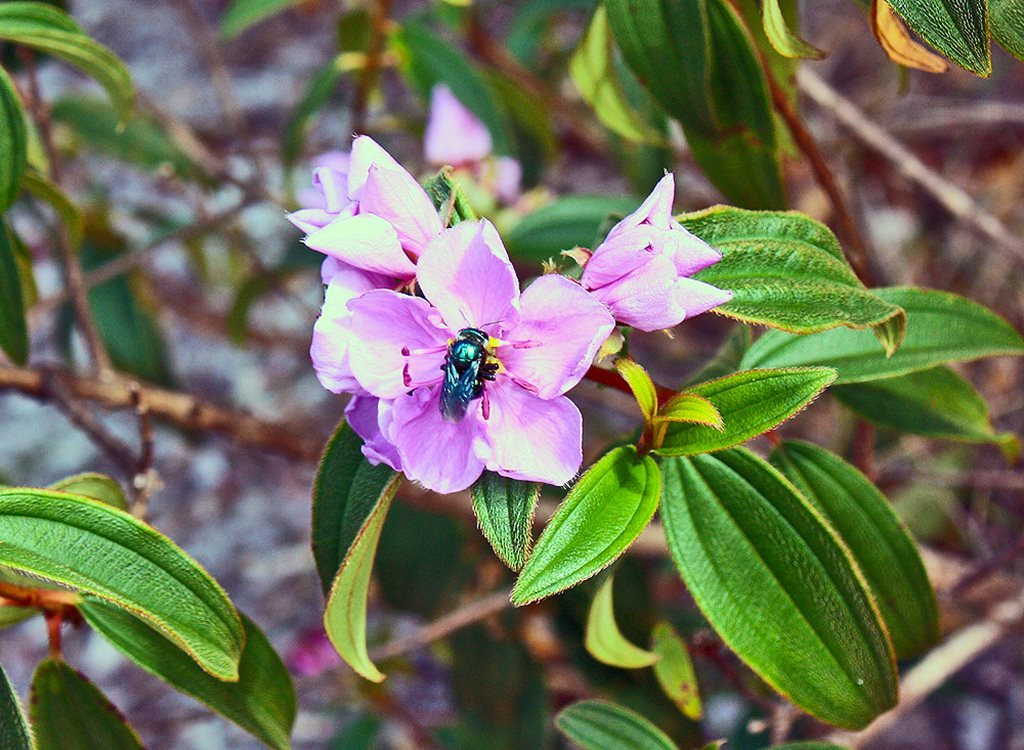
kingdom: Animalia
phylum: Arthropoda
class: Insecta
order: Hymenoptera
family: Apidae
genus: Xylocopa
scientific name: Xylocopa bombylans
